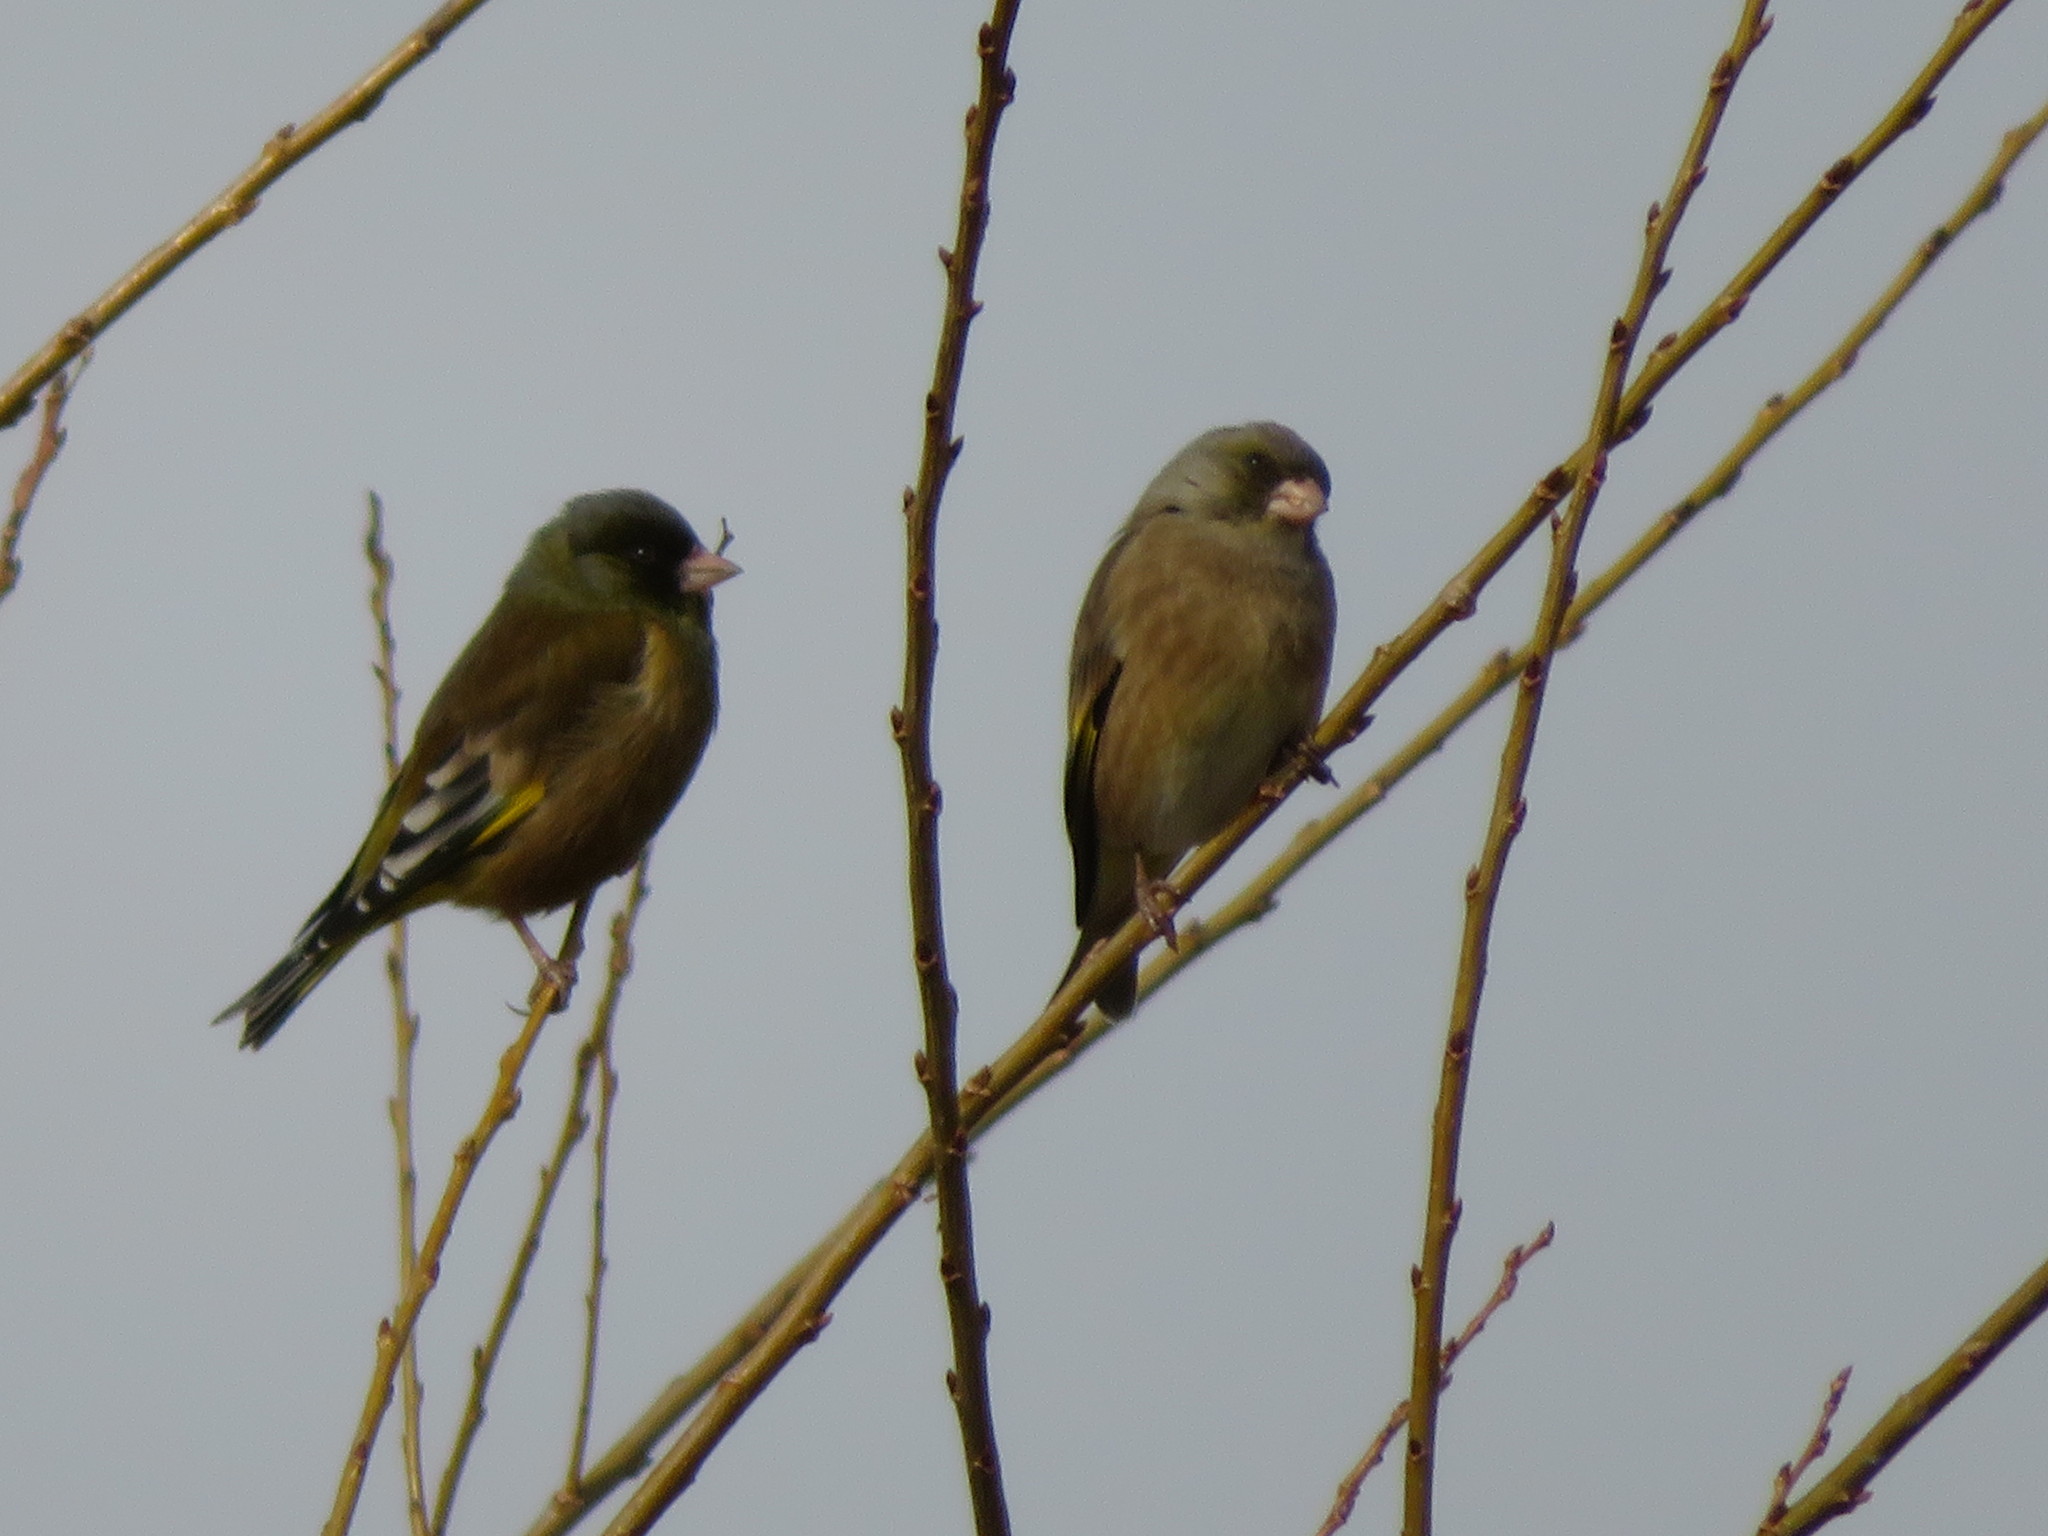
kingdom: Plantae
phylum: Tracheophyta
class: Liliopsida
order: Poales
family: Poaceae
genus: Chloris
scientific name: Chloris sinica
